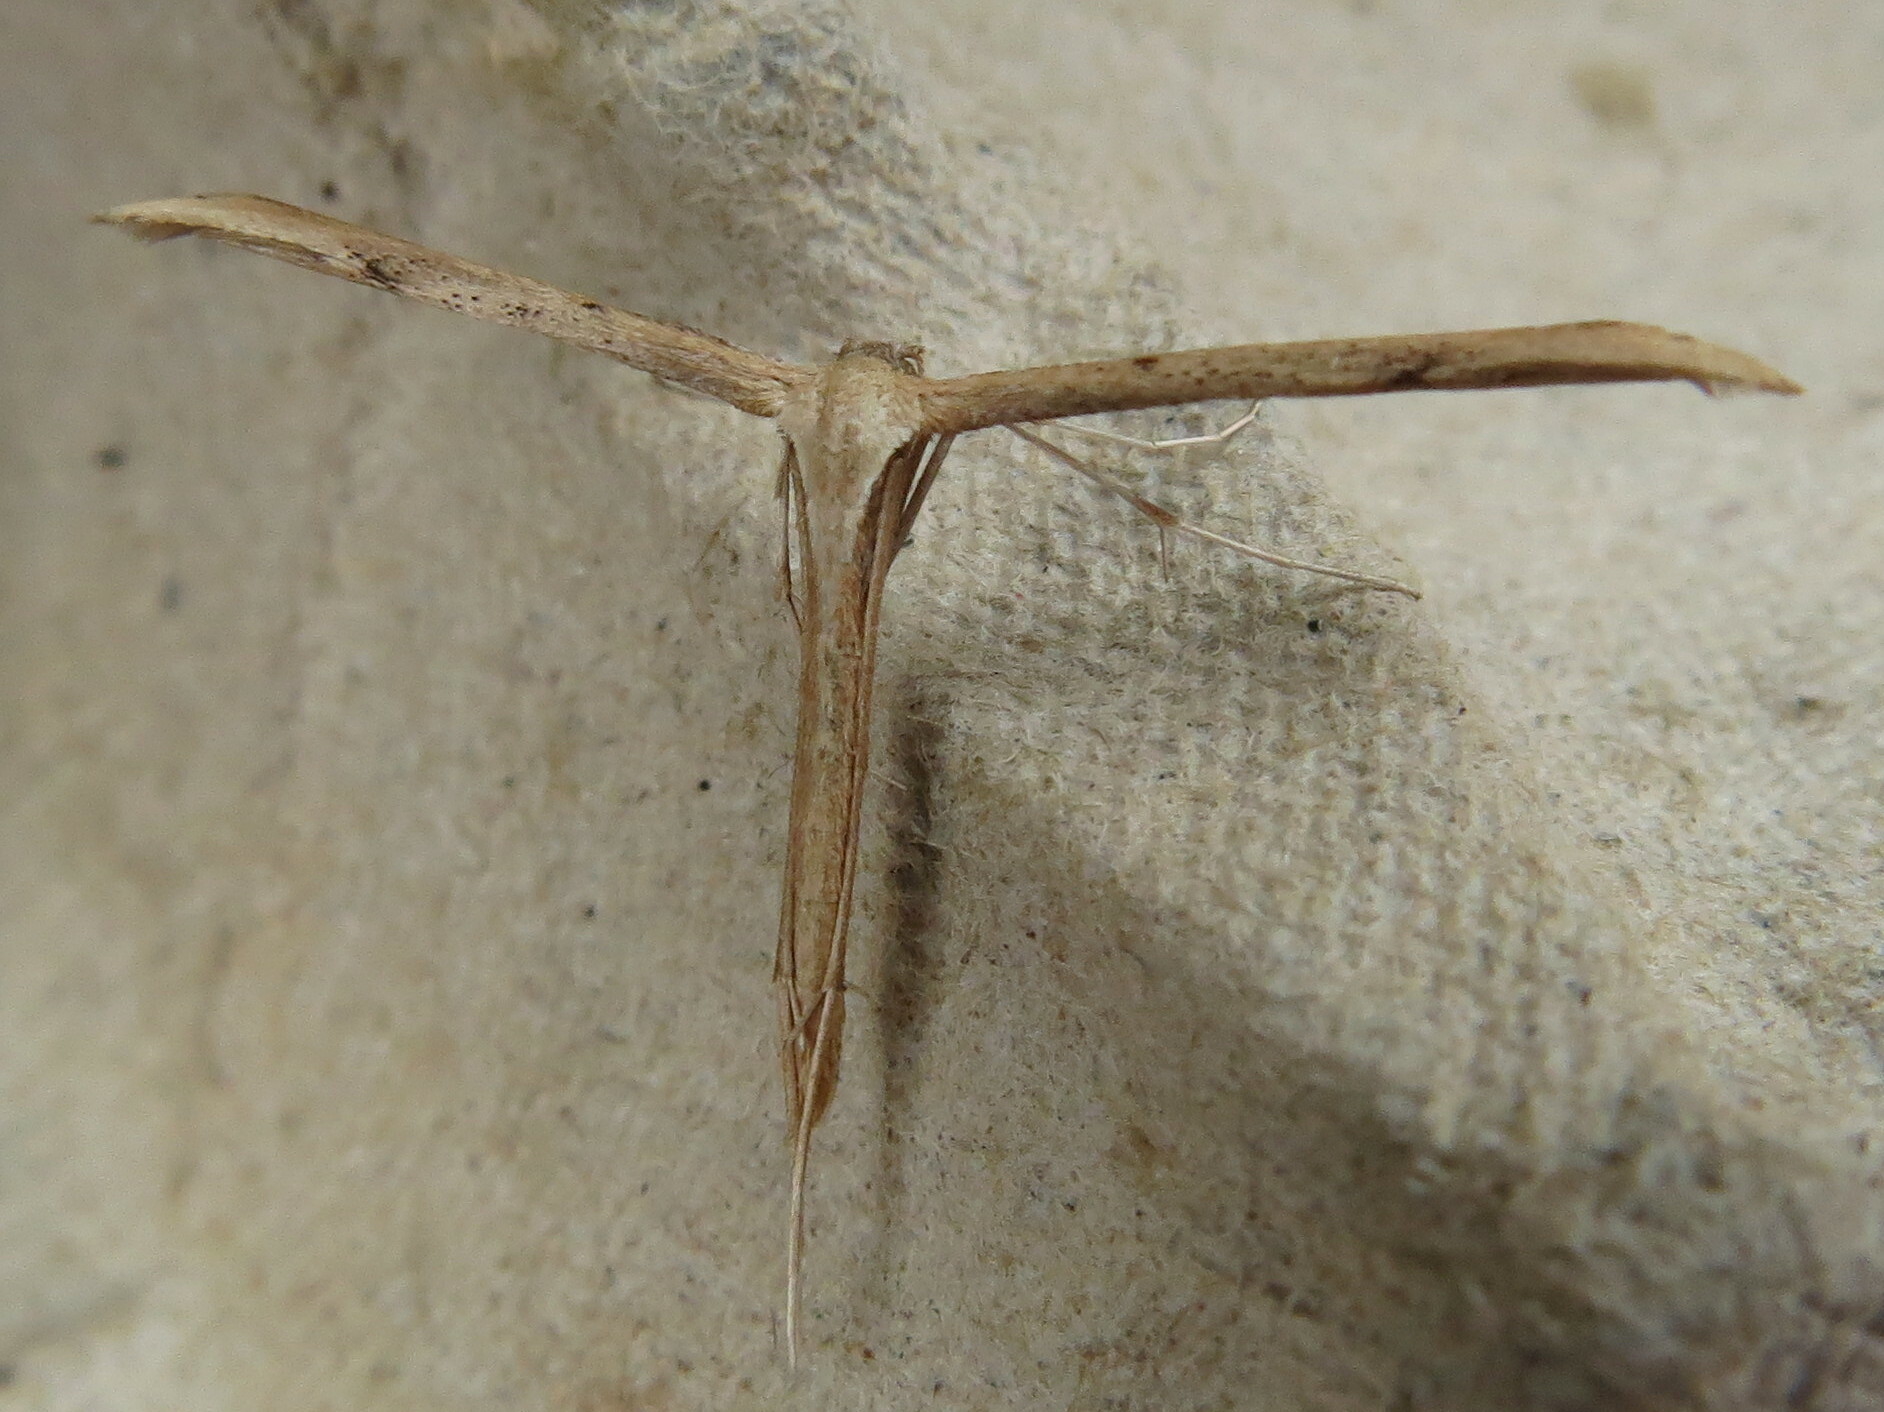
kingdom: Animalia
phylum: Arthropoda
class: Insecta
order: Lepidoptera
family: Pterophoridae
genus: Emmelina
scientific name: Emmelina monodactyla
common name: Common plume
